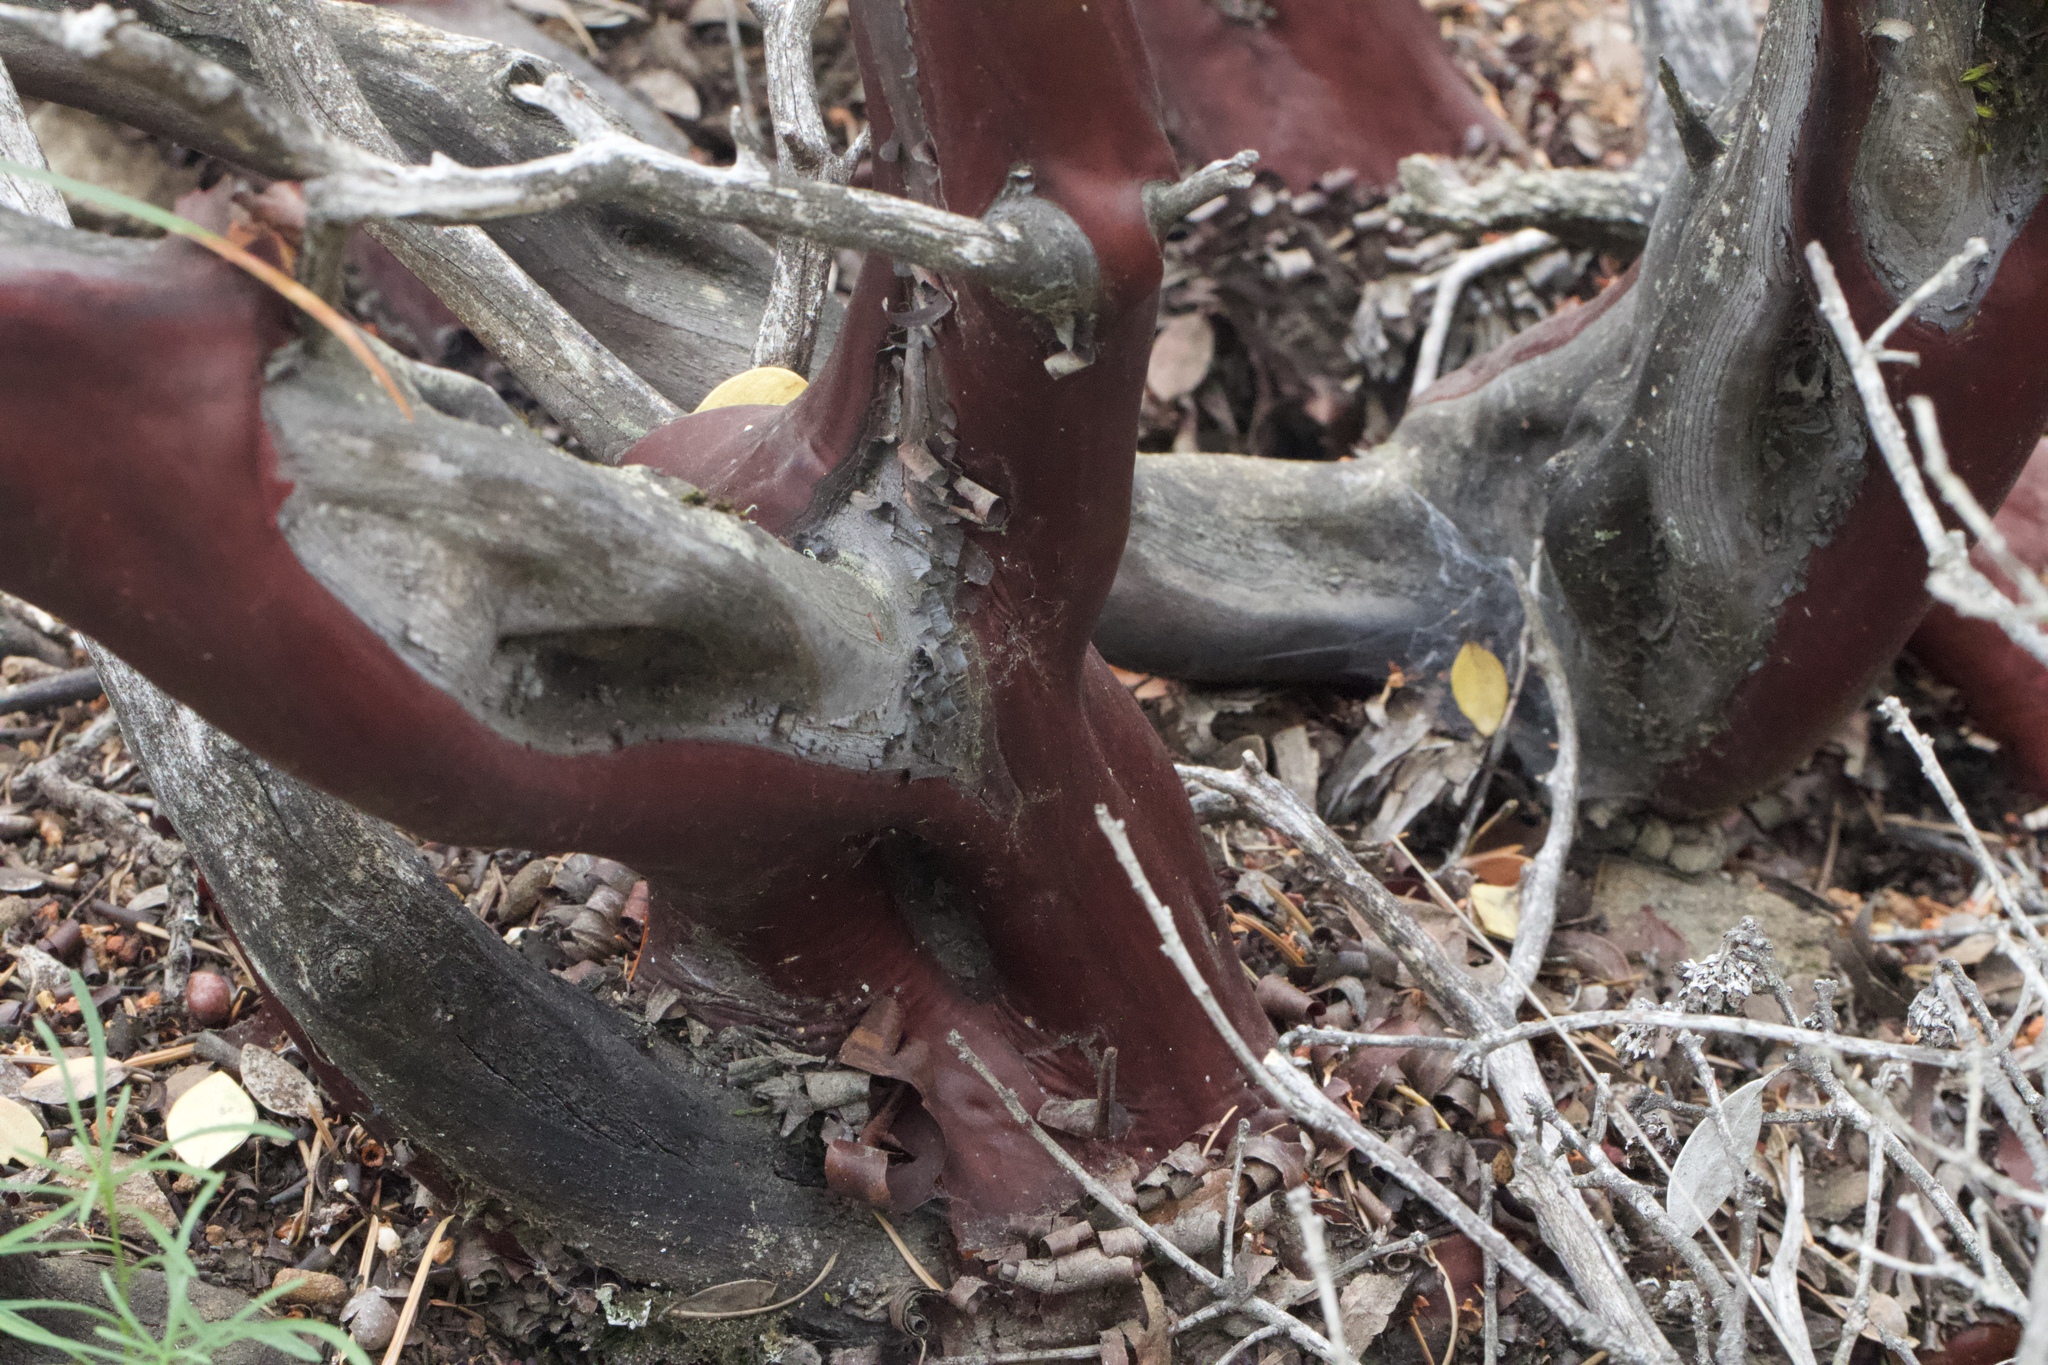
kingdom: Plantae
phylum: Tracheophyta
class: Magnoliopsida
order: Ericales
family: Ericaceae
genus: Arctostaphylos
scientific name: Arctostaphylos montana
